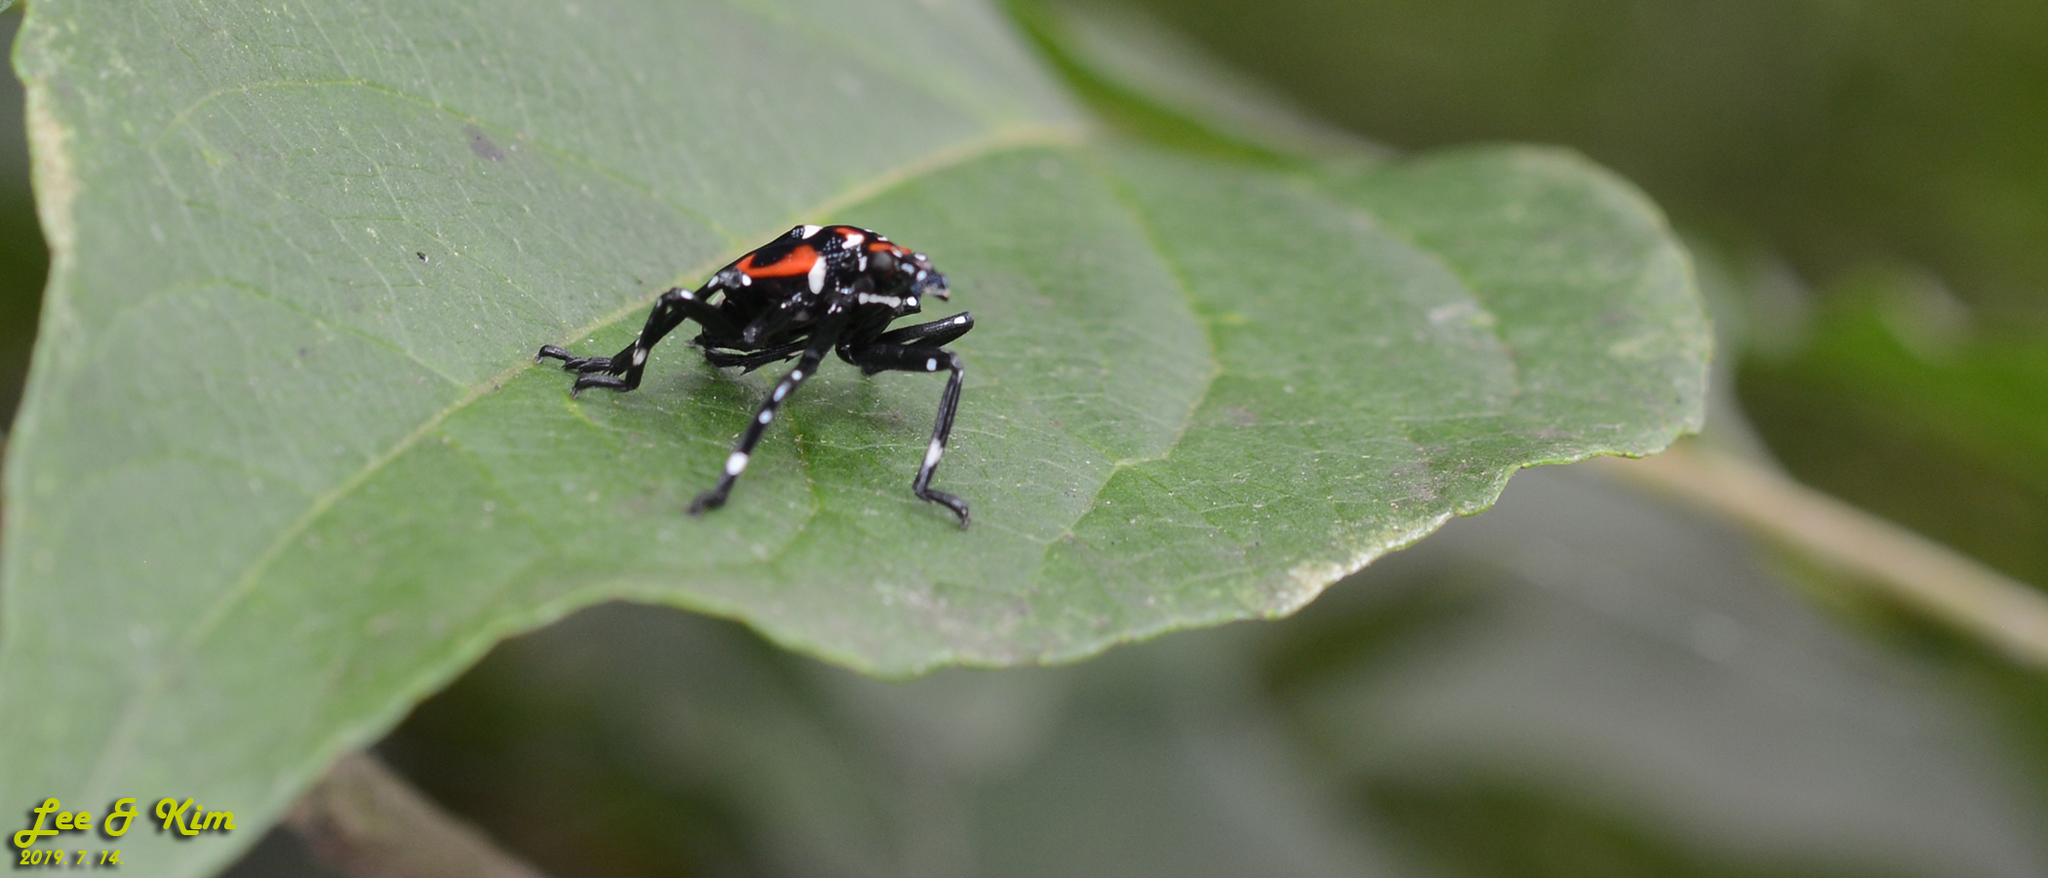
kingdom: Animalia
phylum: Arthropoda
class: Insecta
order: Hemiptera
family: Fulgoridae
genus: Lycorma
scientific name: Lycorma delicatula
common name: Spotted lanternfly
